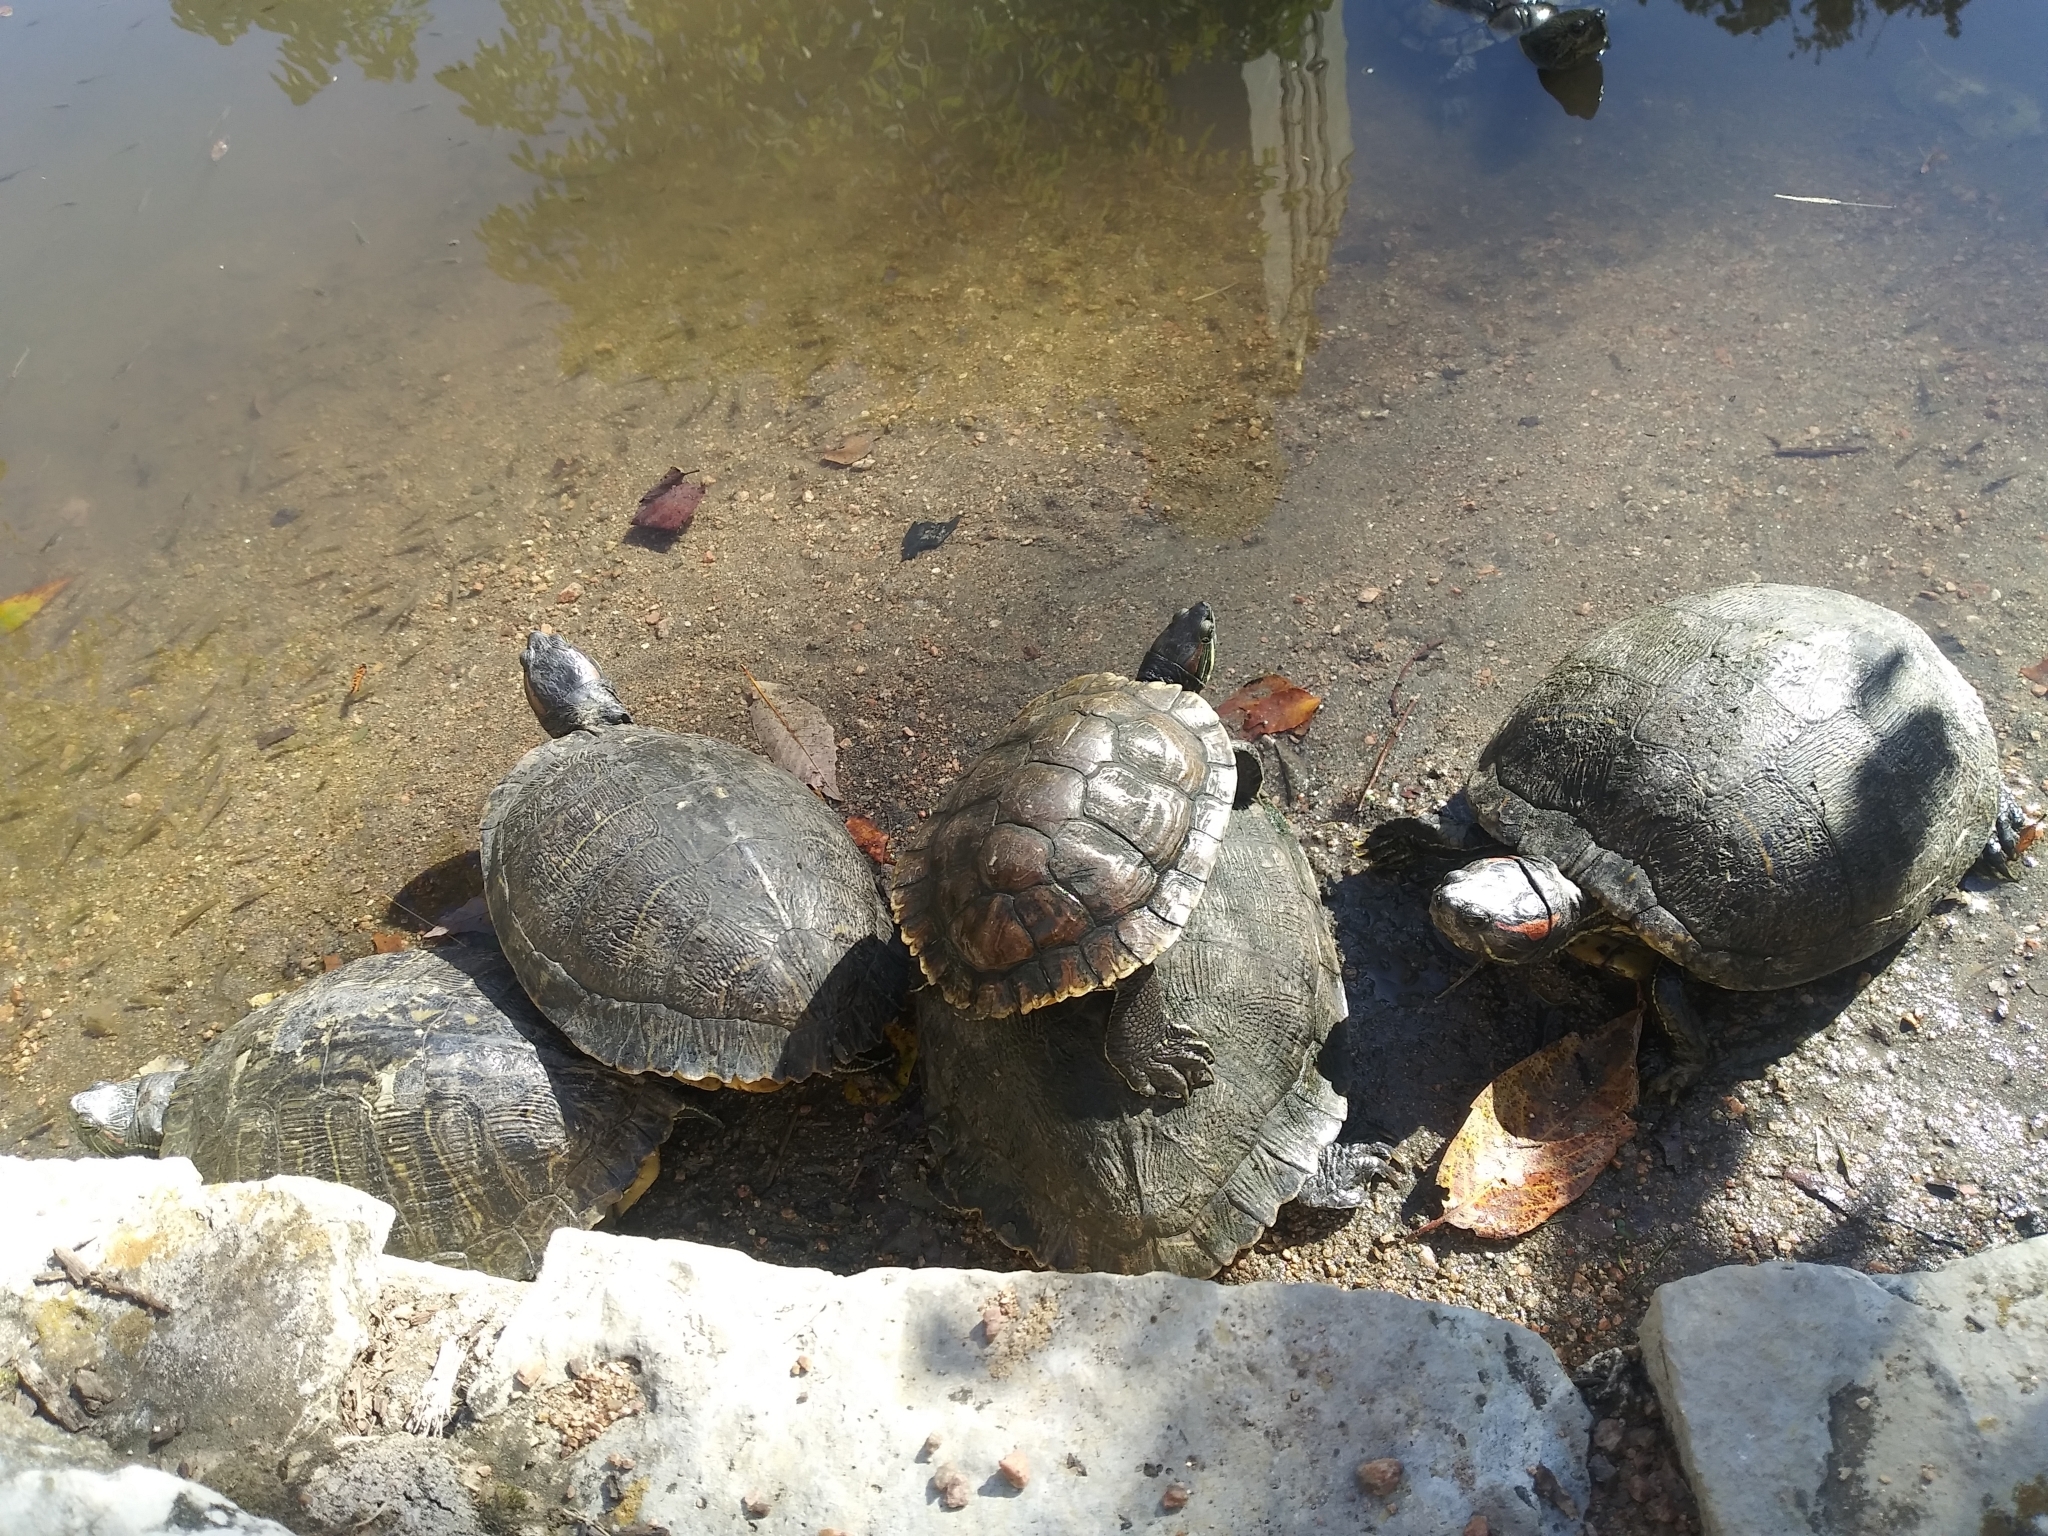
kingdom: Animalia
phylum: Chordata
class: Testudines
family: Emydidae
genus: Trachemys
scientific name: Trachemys scripta
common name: Slider
